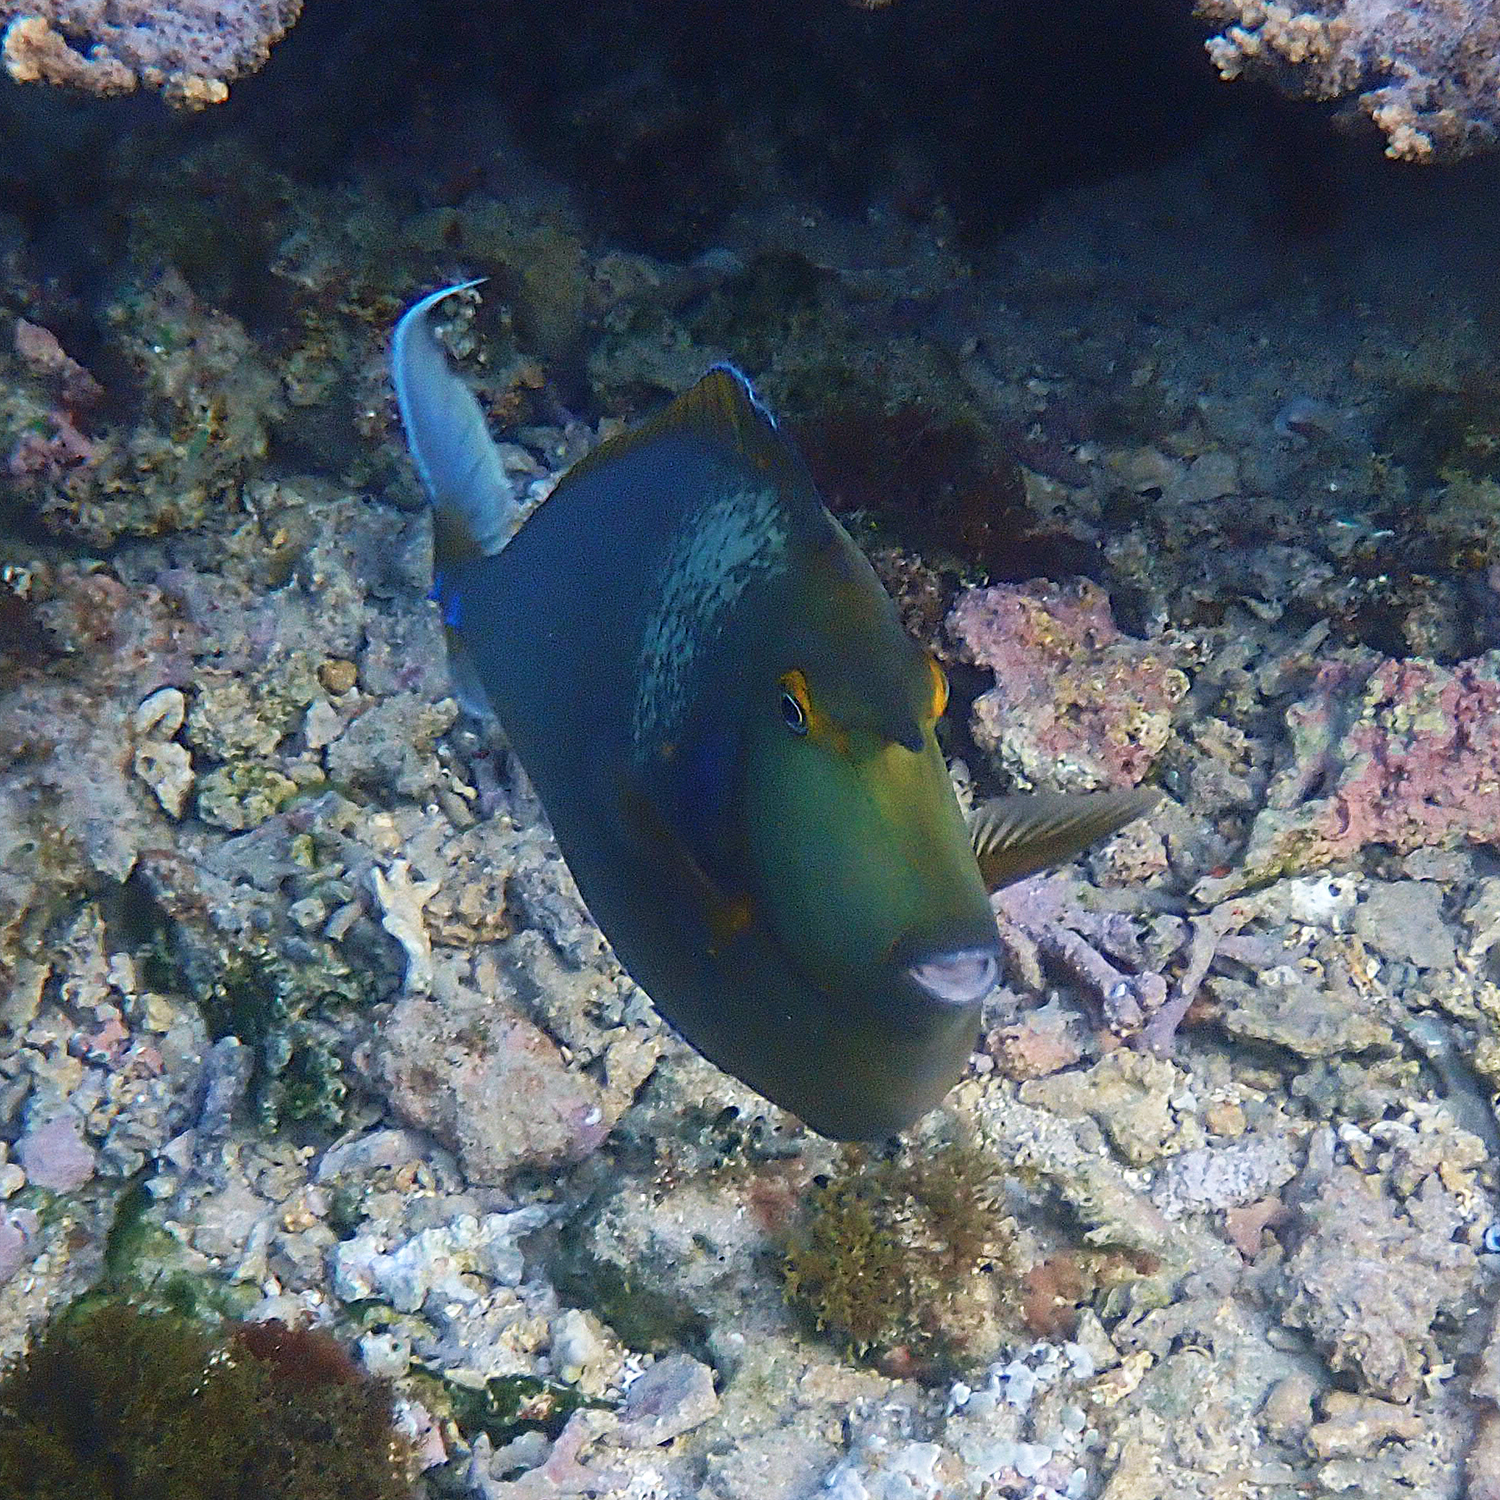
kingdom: Animalia
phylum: Chordata
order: Perciformes
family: Acanthuridae
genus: Naso
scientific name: Naso unicornis
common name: Bluespine unicornfish
